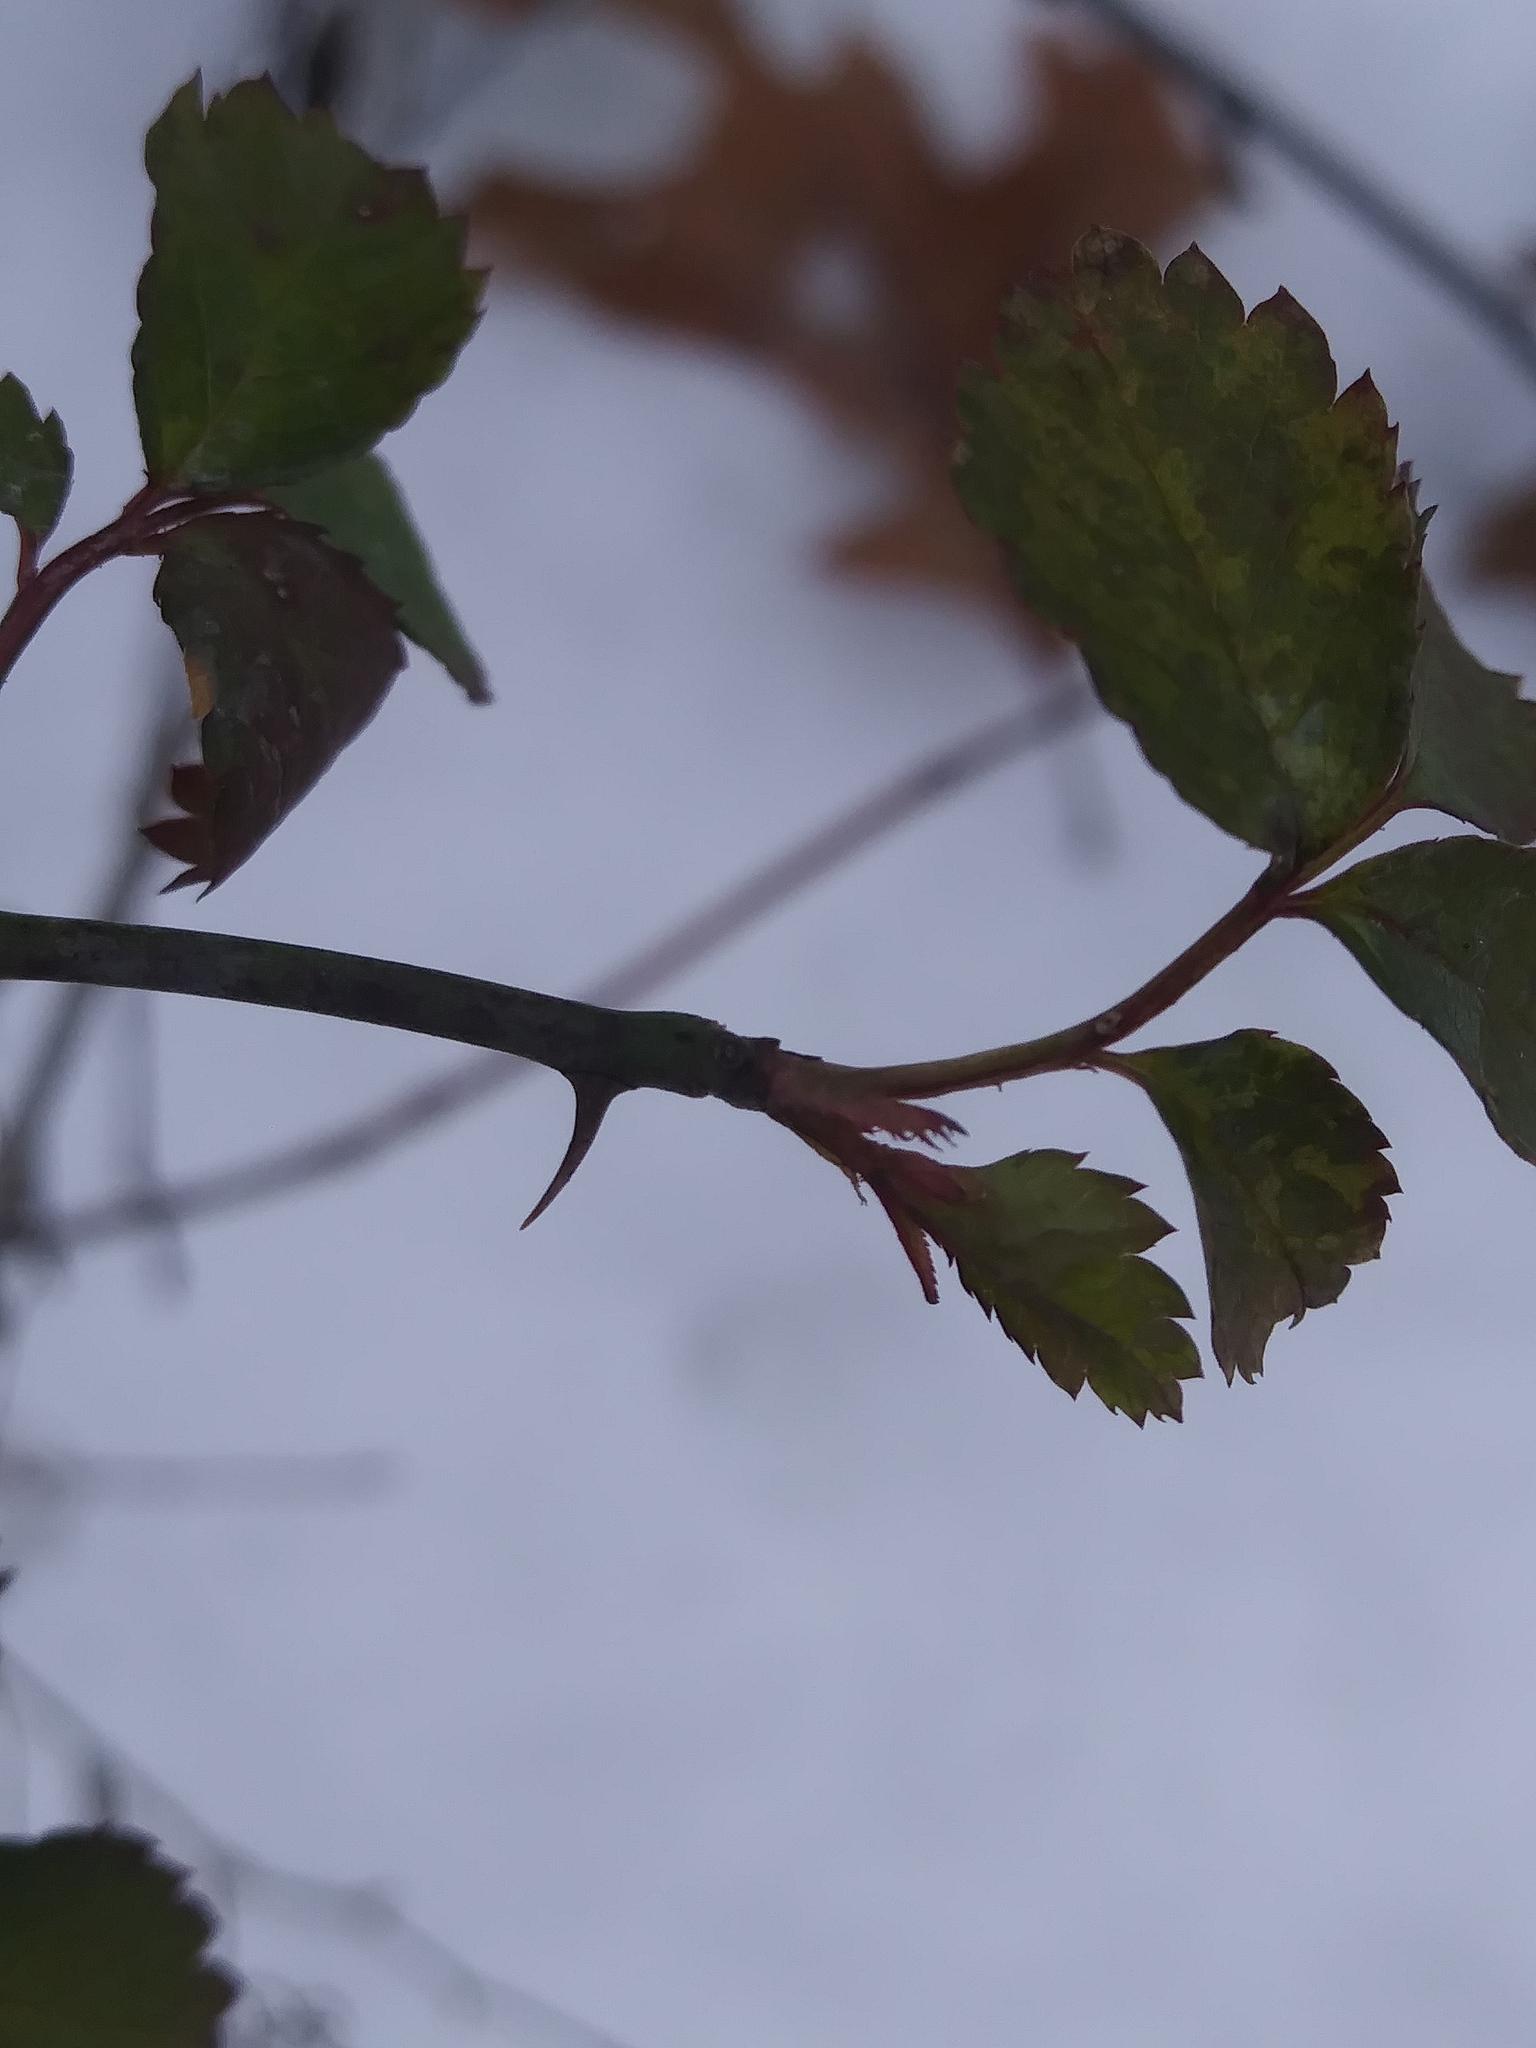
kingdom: Plantae
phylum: Tracheophyta
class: Magnoliopsida
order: Rosales
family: Rosaceae
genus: Rosa
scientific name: Rosa multiflora
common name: Multiflora rose
